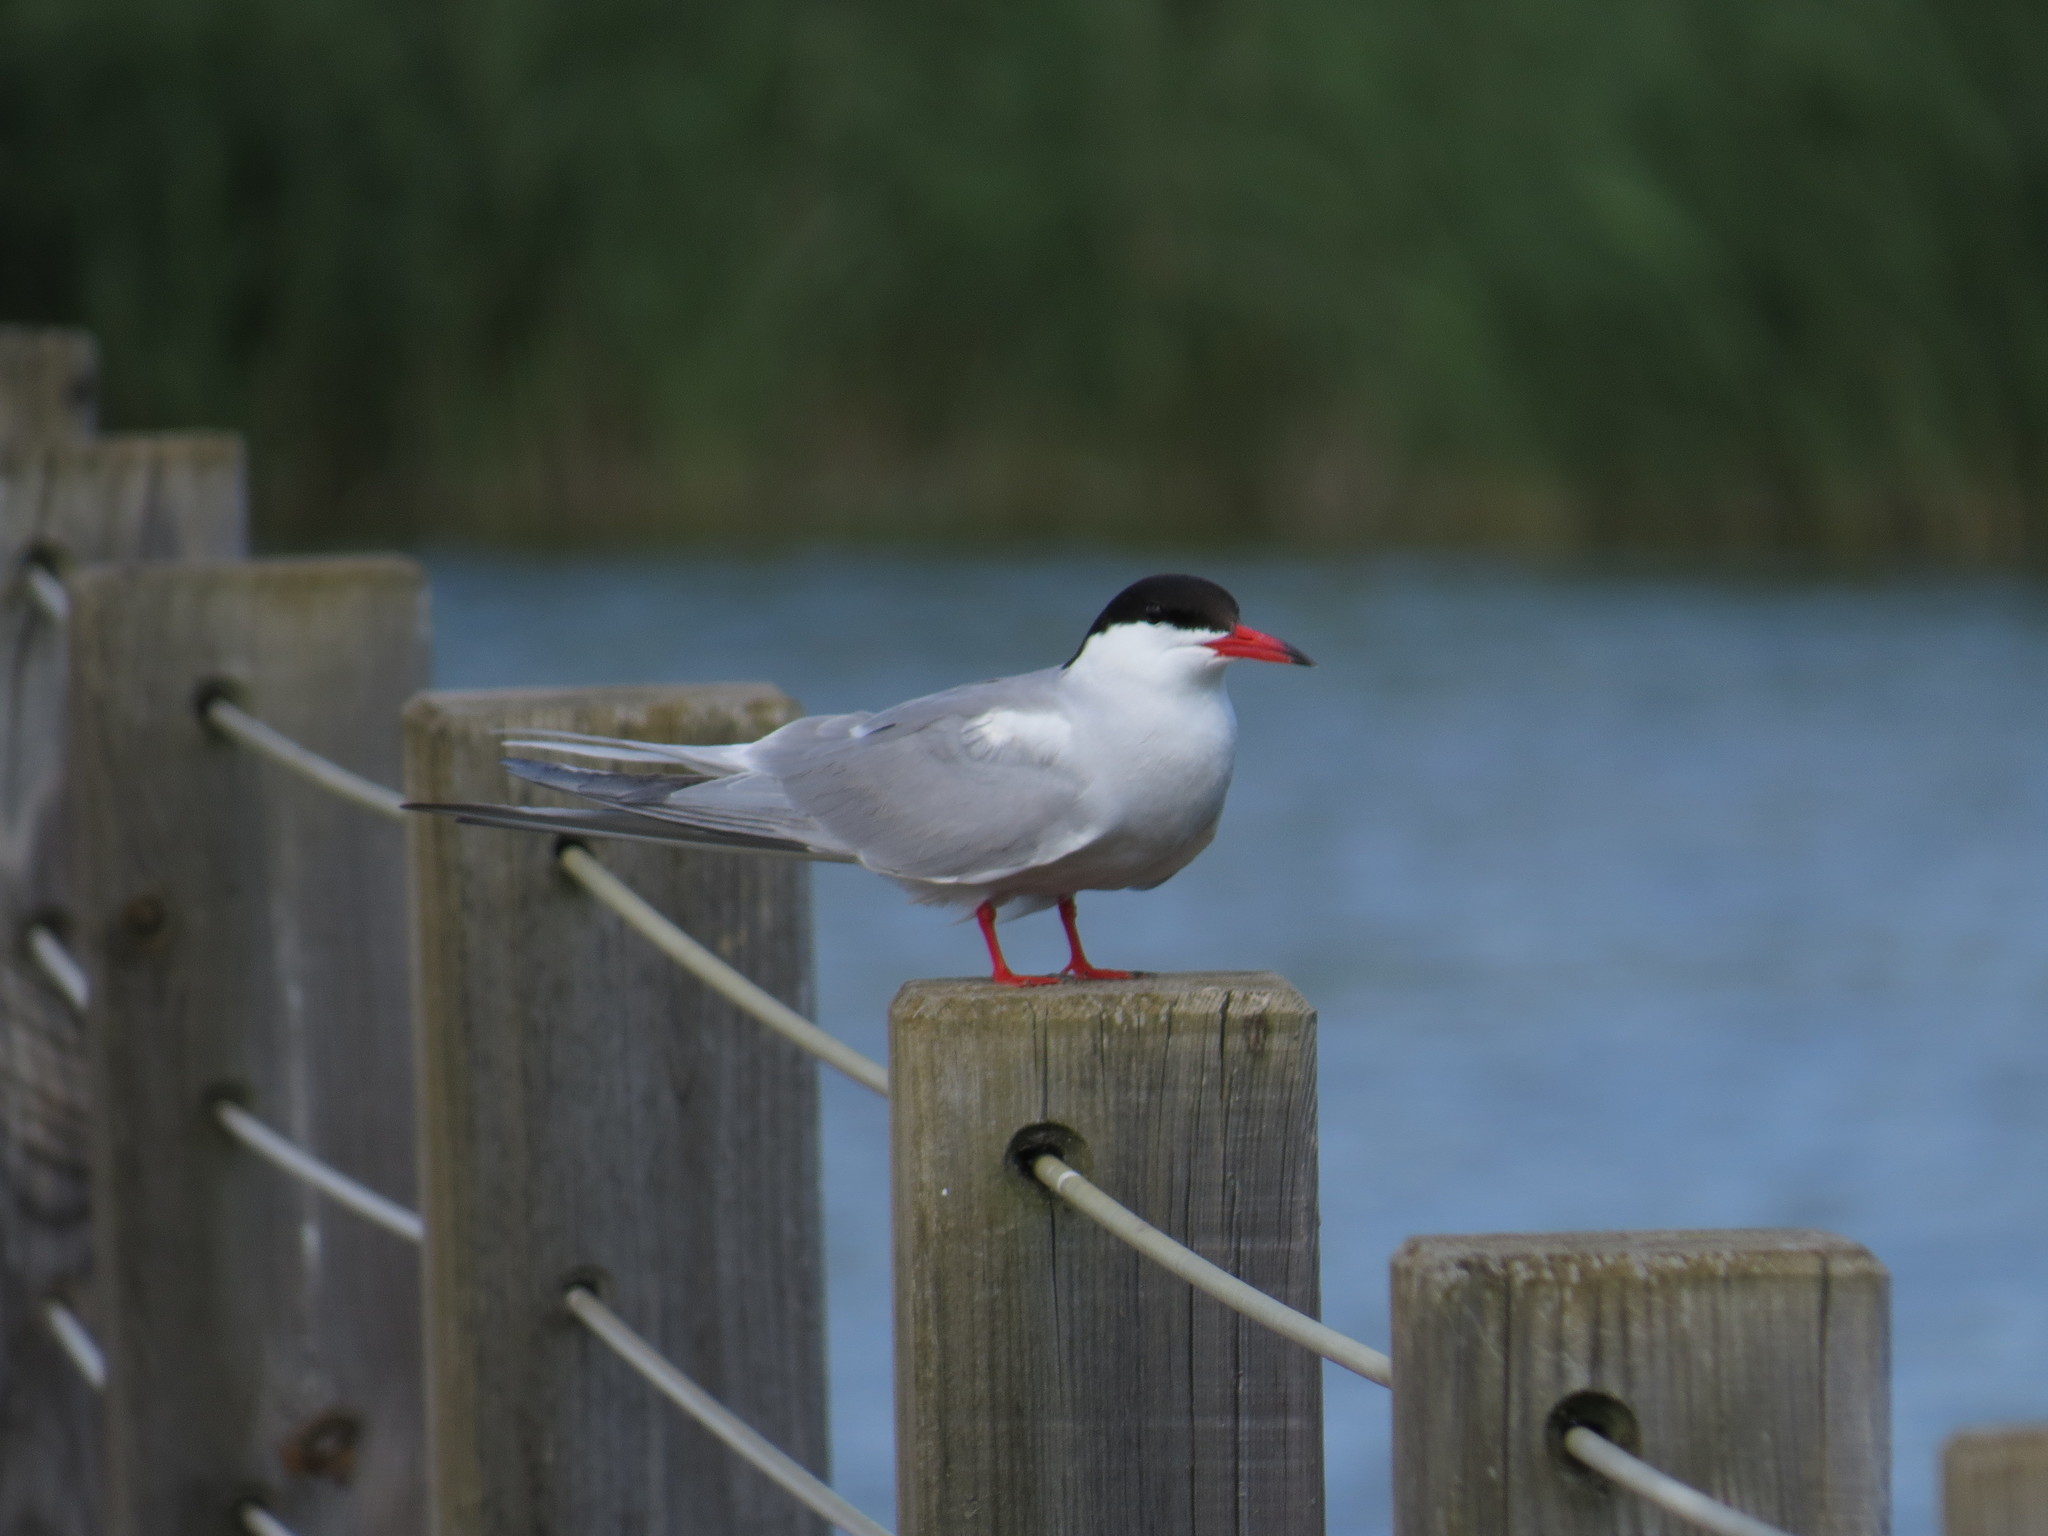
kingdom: Animalia
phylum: Chordata
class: Aves
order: Charadriiformes
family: Laridae
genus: Sterna
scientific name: Sterna hirundo
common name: Common tern
